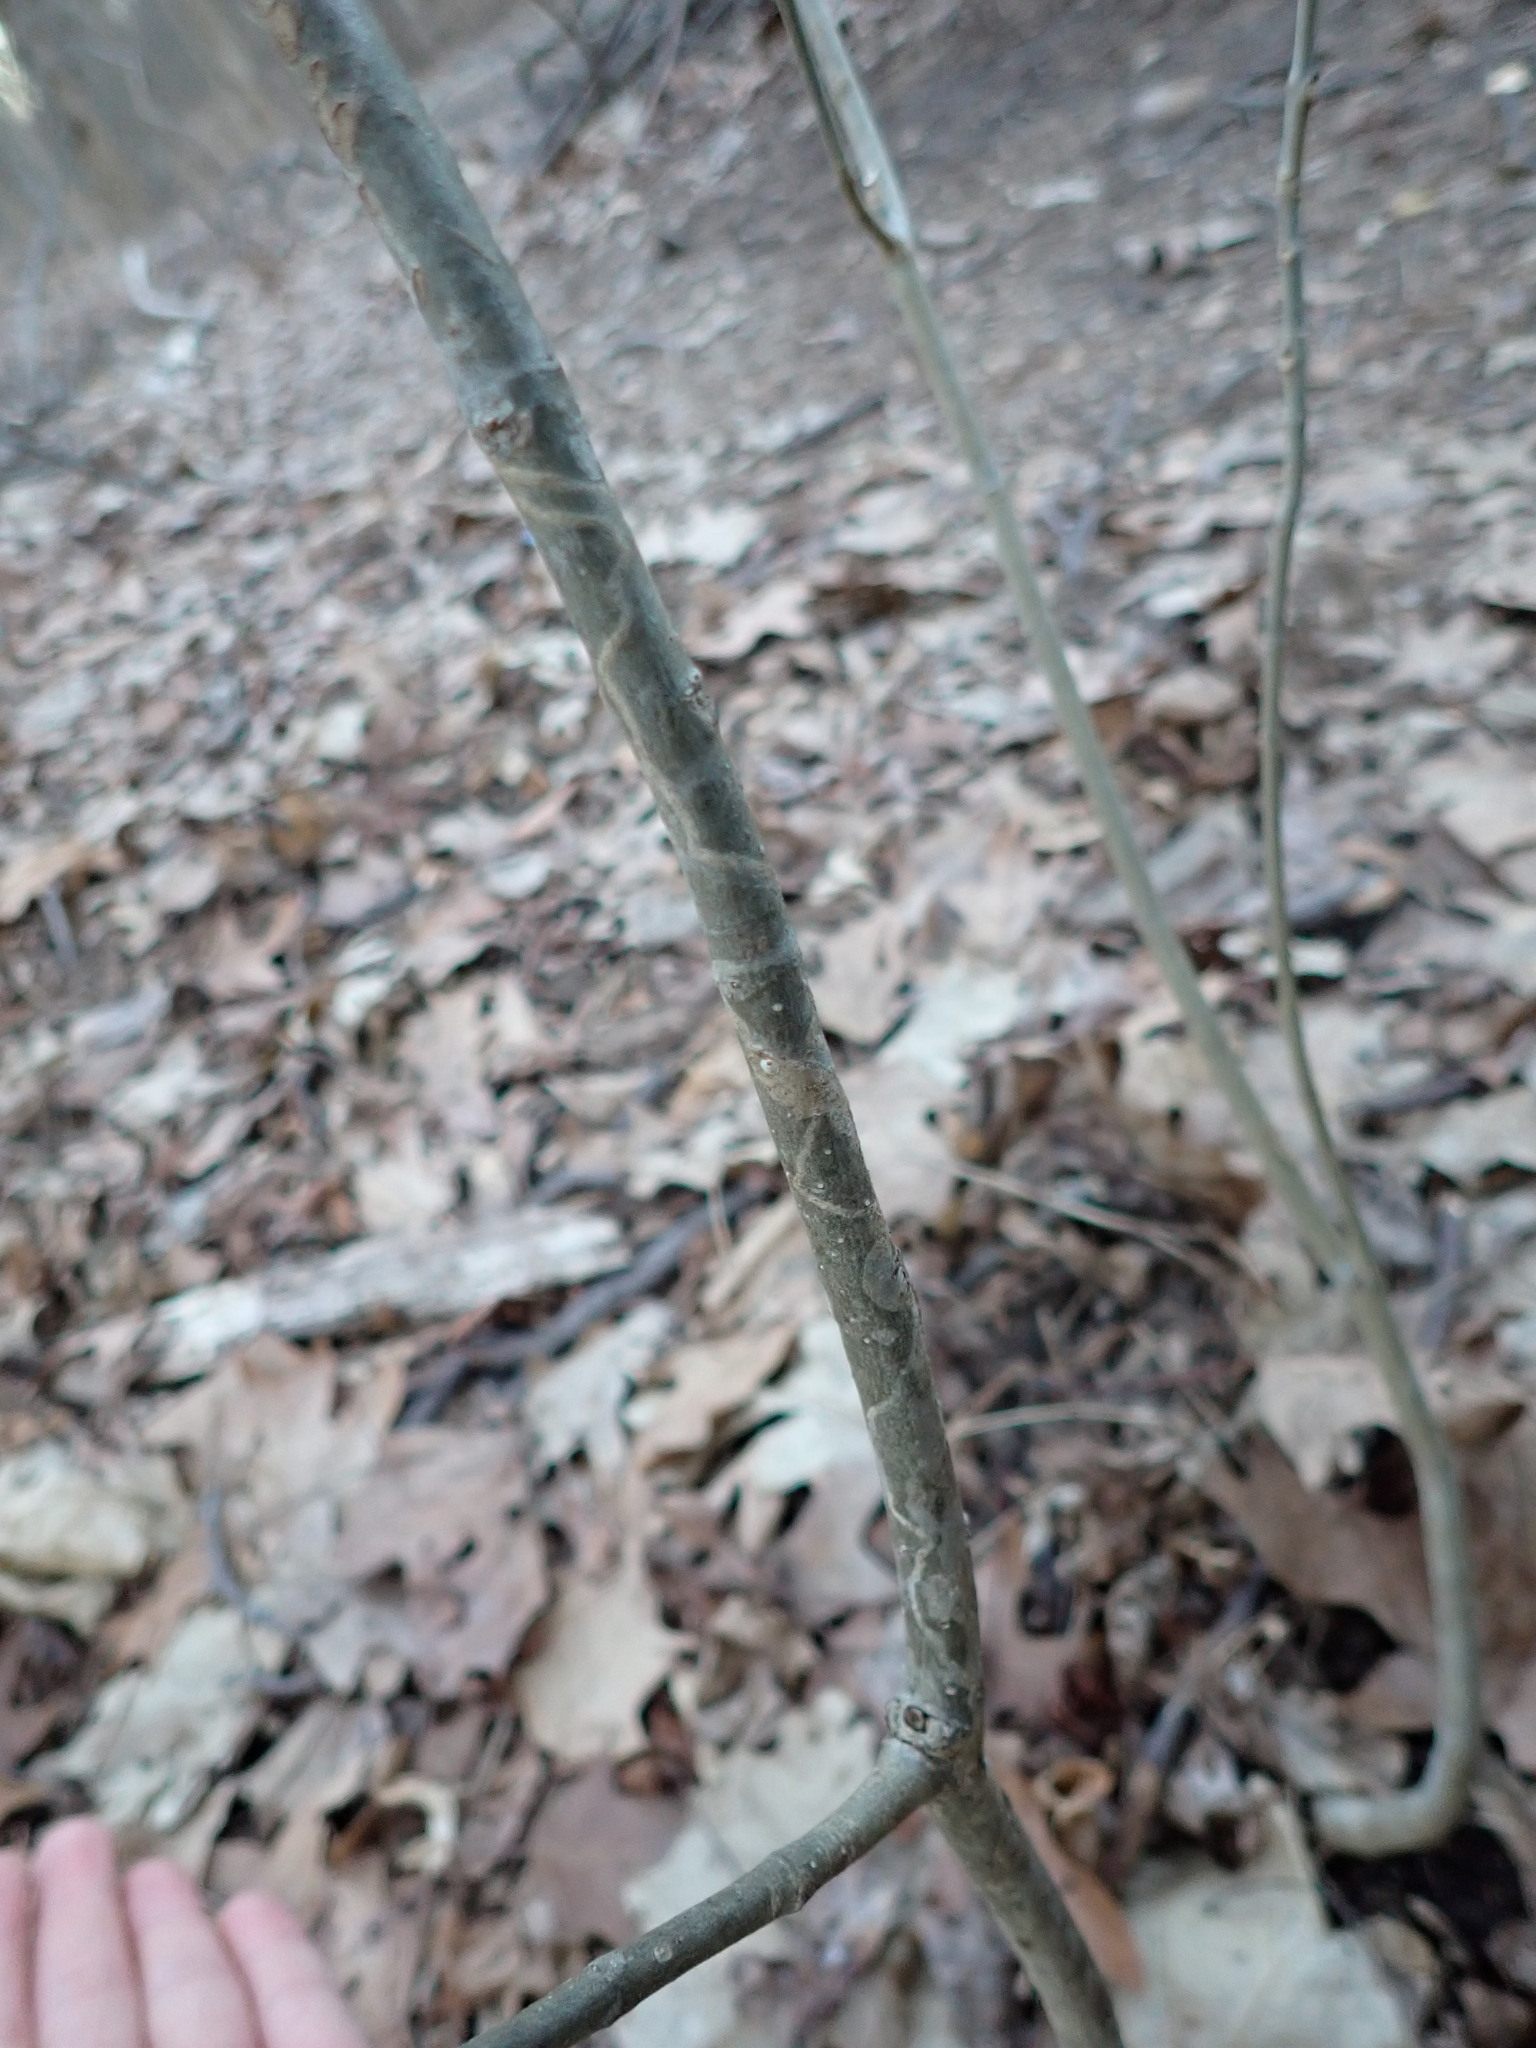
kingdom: Animalia
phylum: Arthropoda
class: Insecta
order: Lepidoptera
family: Gracillariidae
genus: Marmara
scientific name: Marmara fraxinicola
